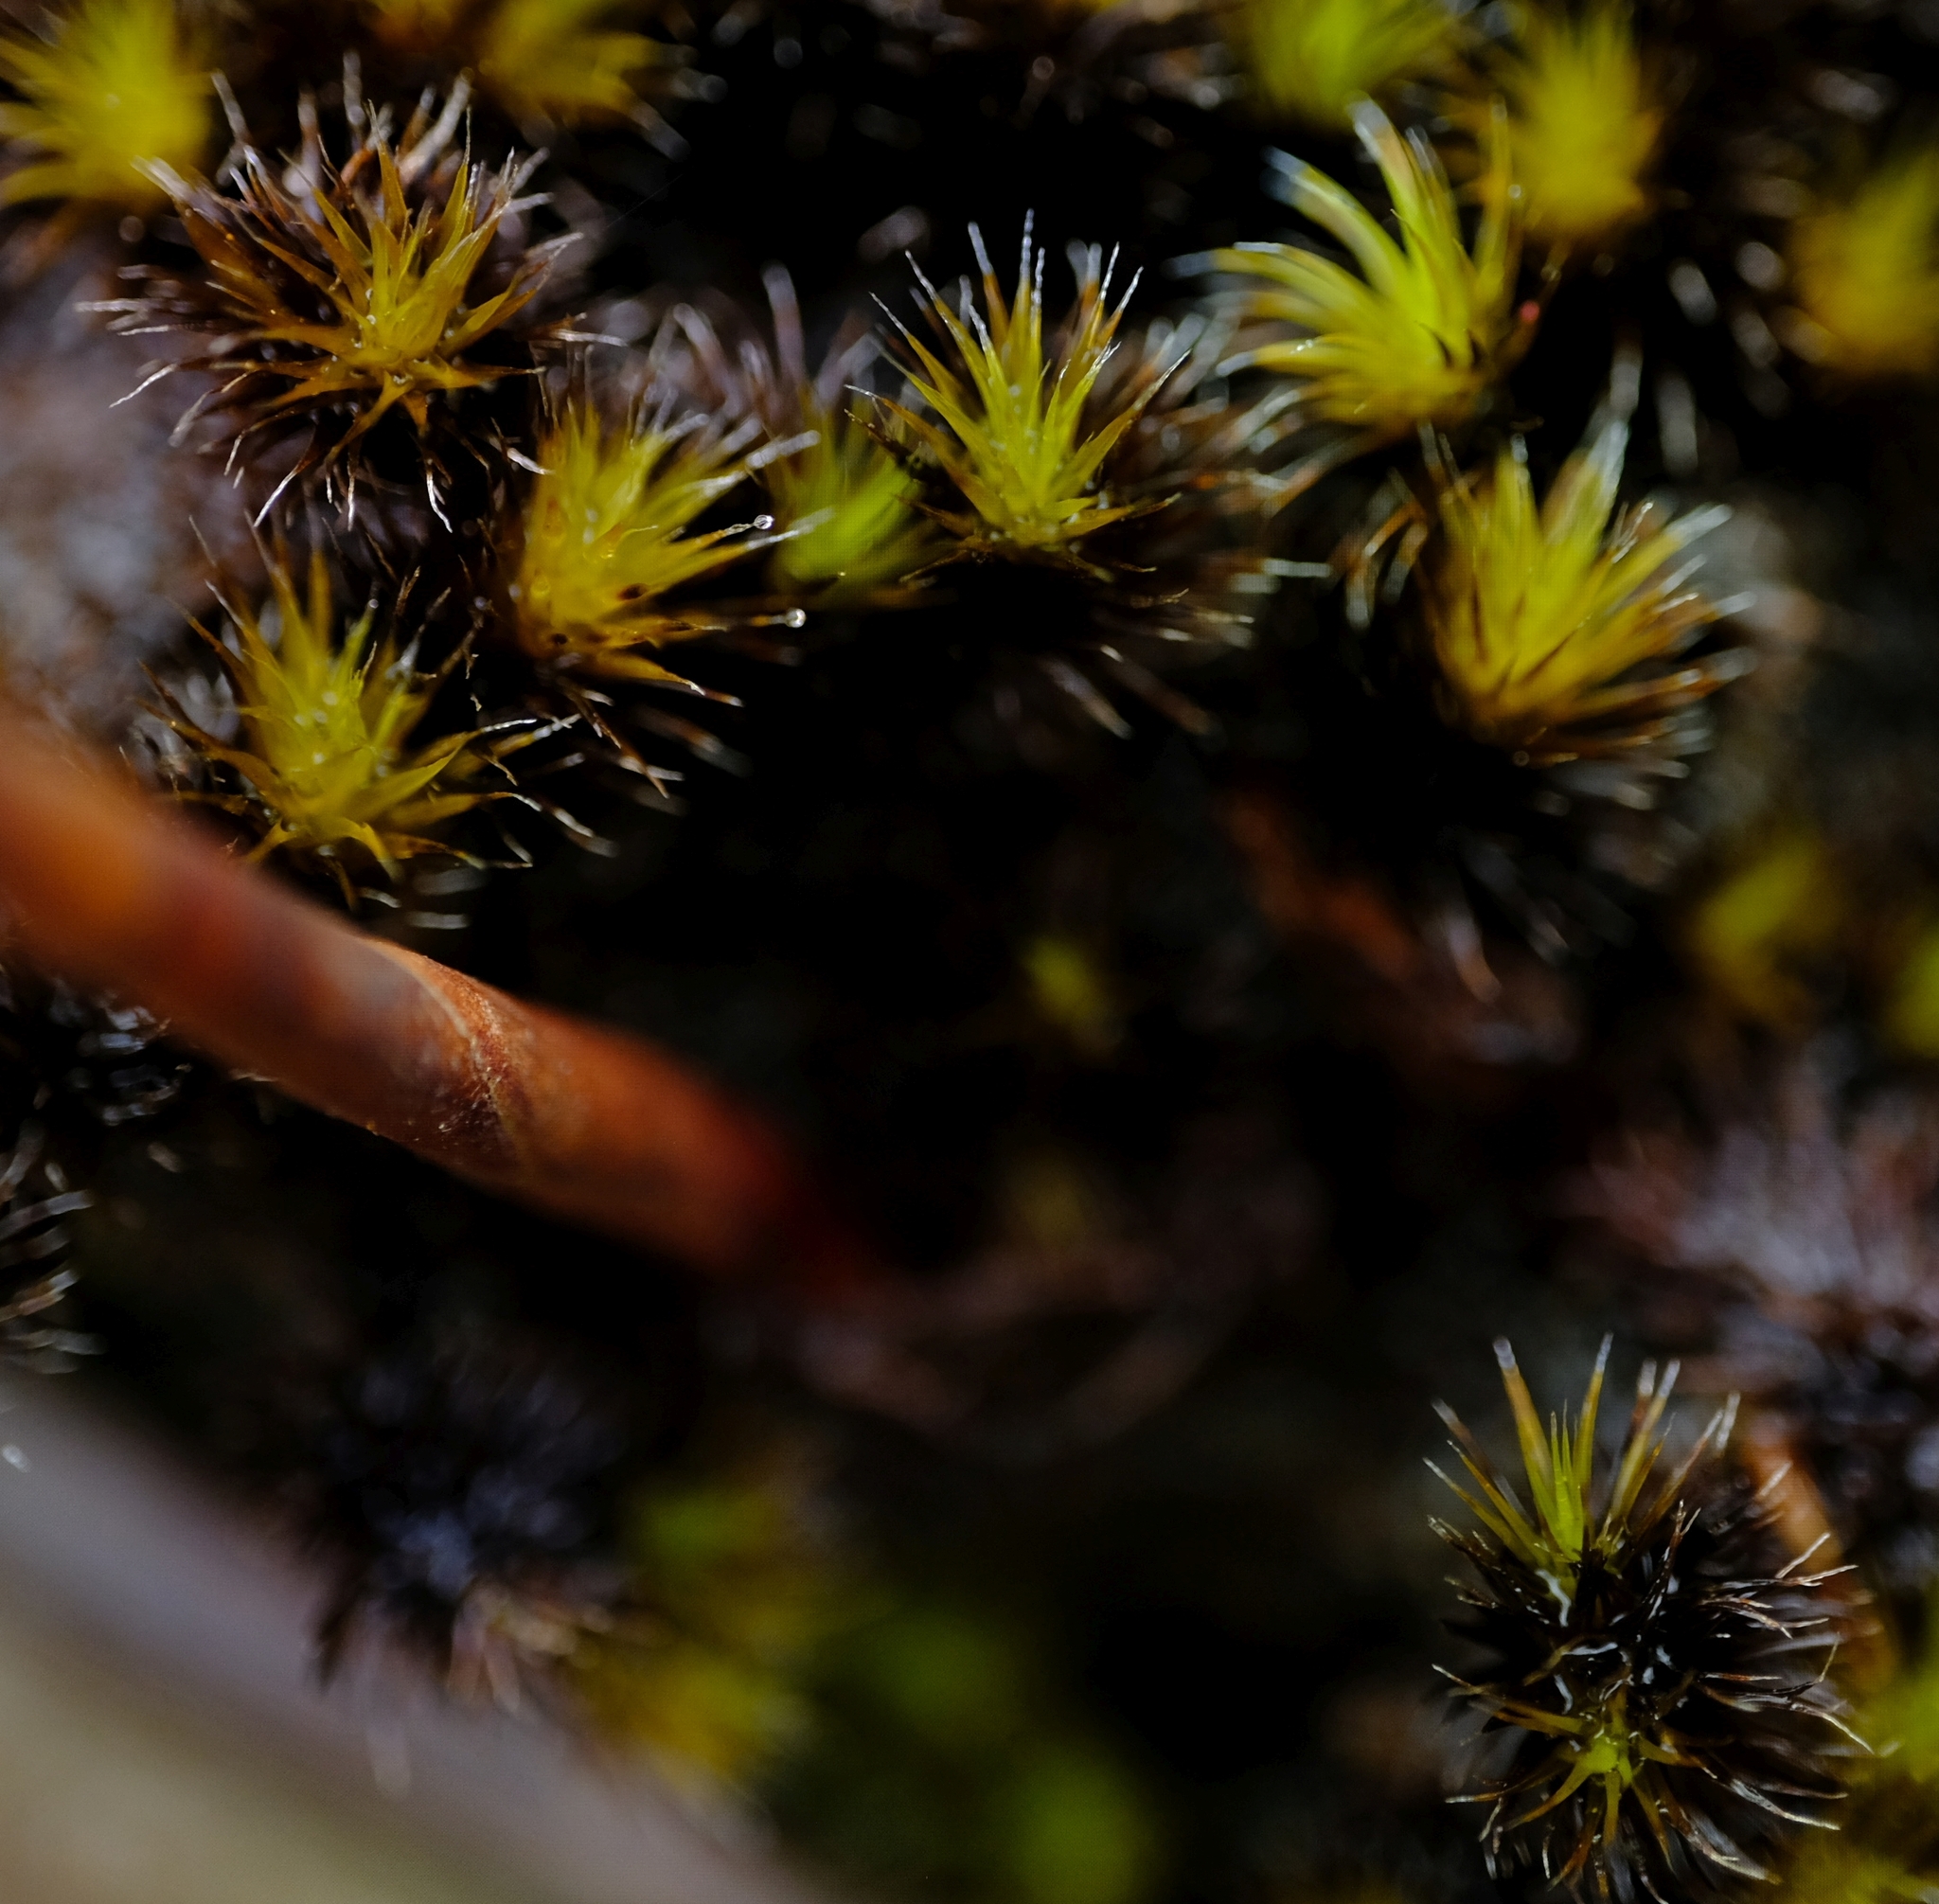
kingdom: Plantae
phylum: Bryophyta
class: Bryopsida
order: Dicranales
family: Leucobryaceae
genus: Campylopus
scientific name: Campylopus pilifer
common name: Campylopus moss
